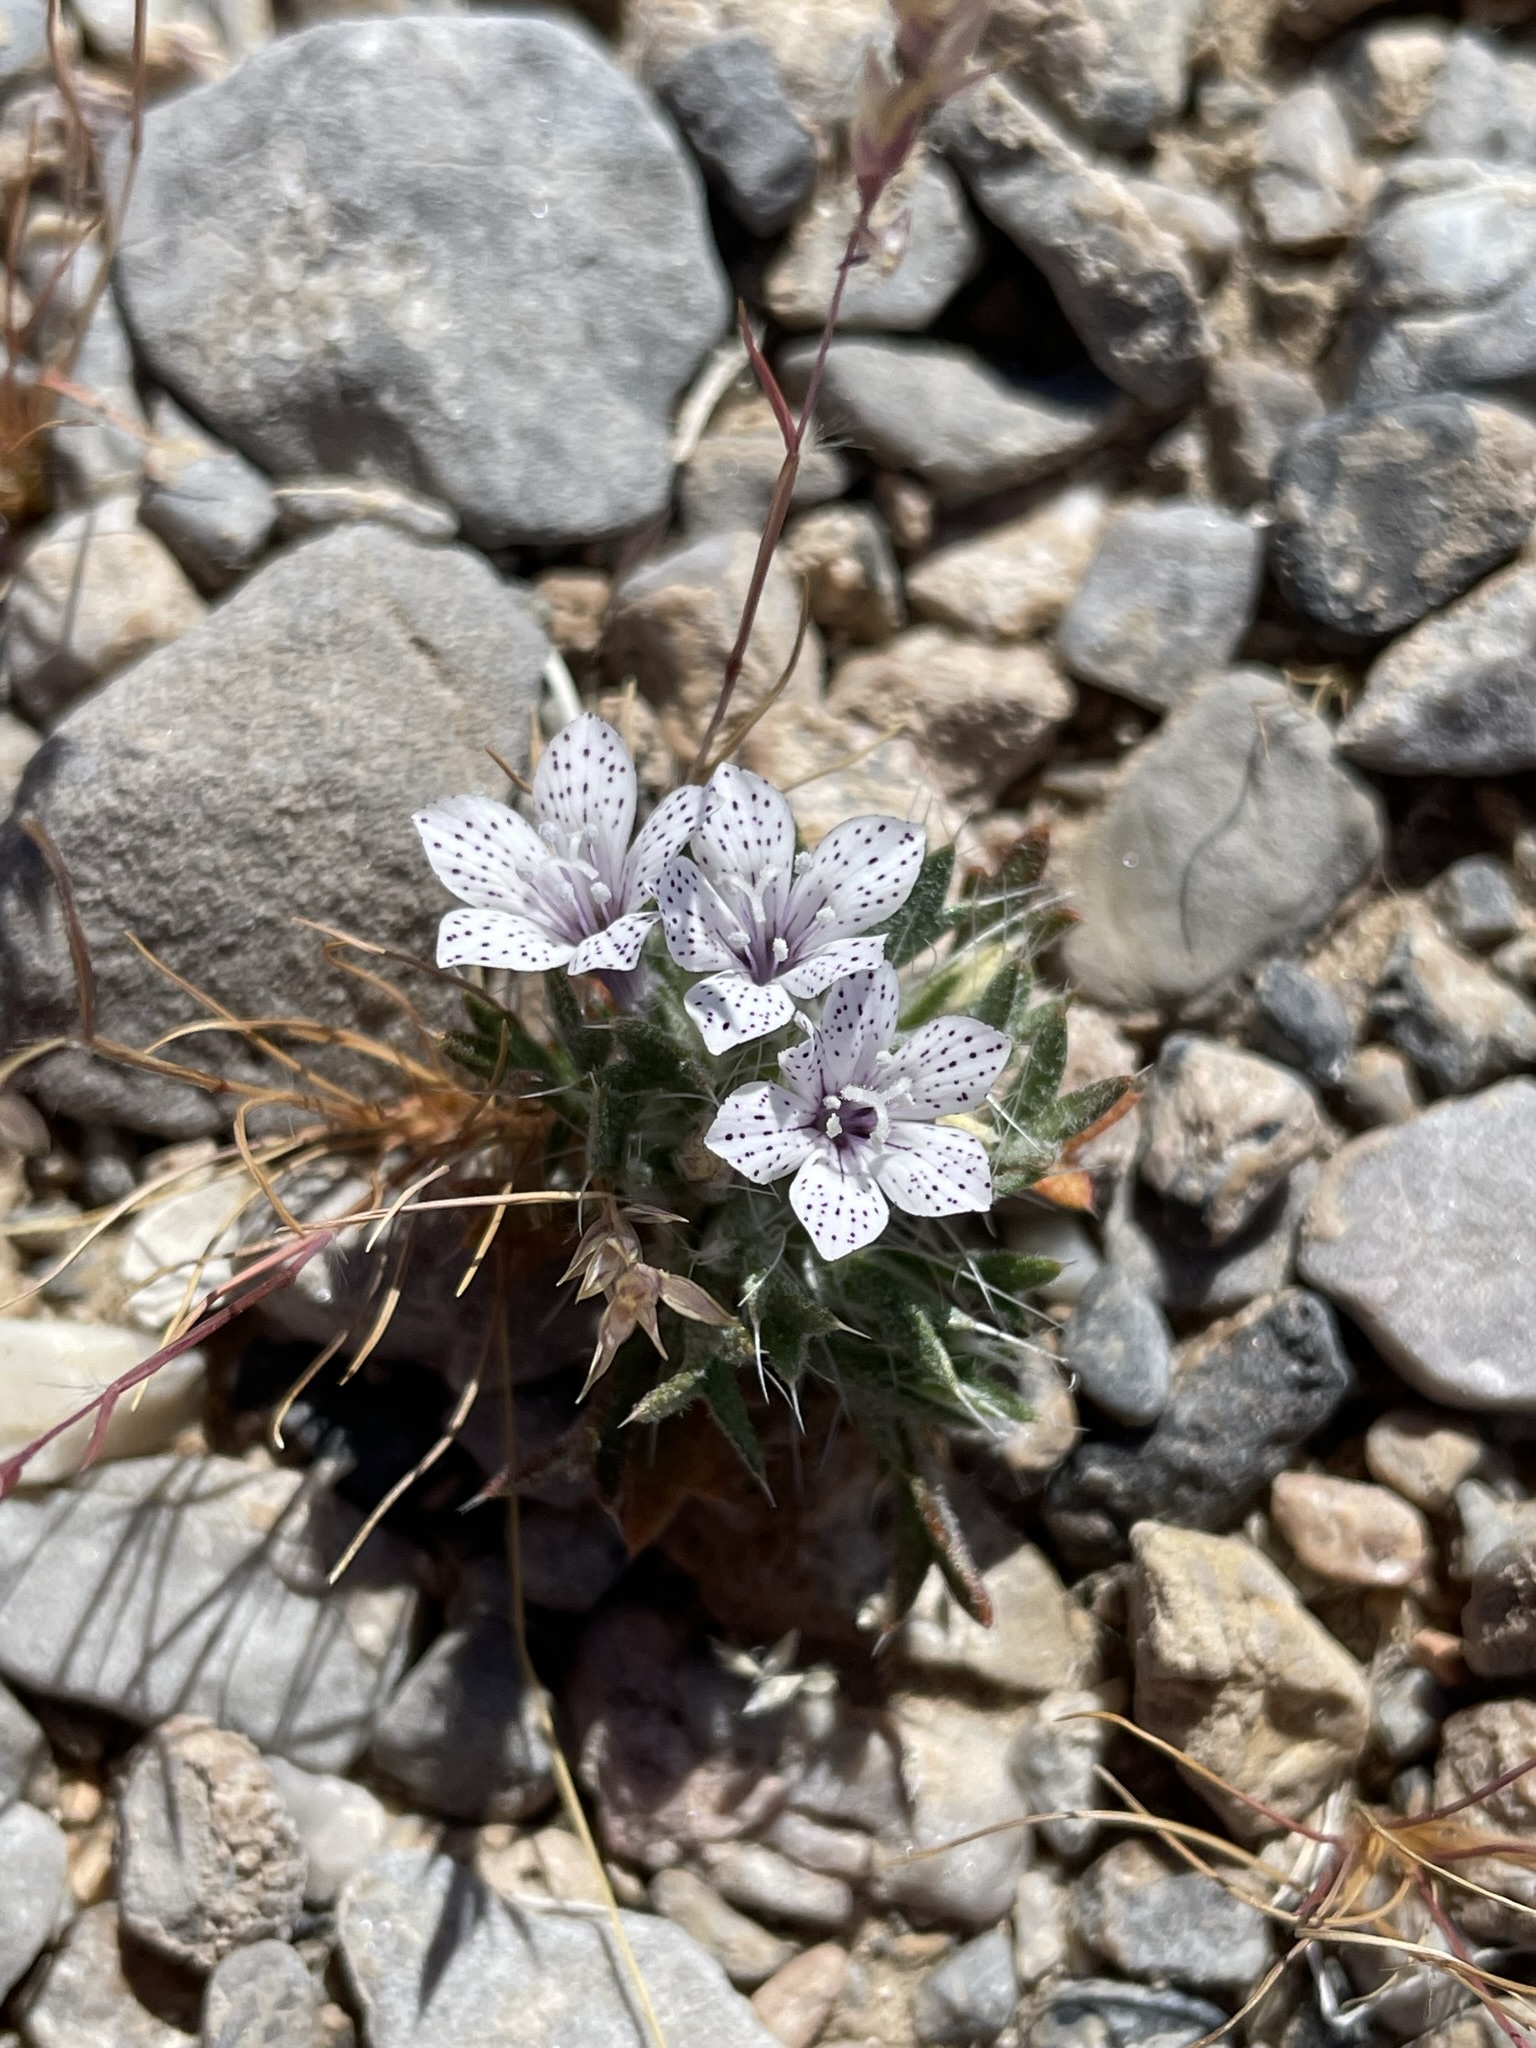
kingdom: Plantae
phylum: Tracheophyta
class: Magnoliopsida
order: Ericales
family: Polemoniaceae
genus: Langloisia
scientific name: Langloisia setosissima
